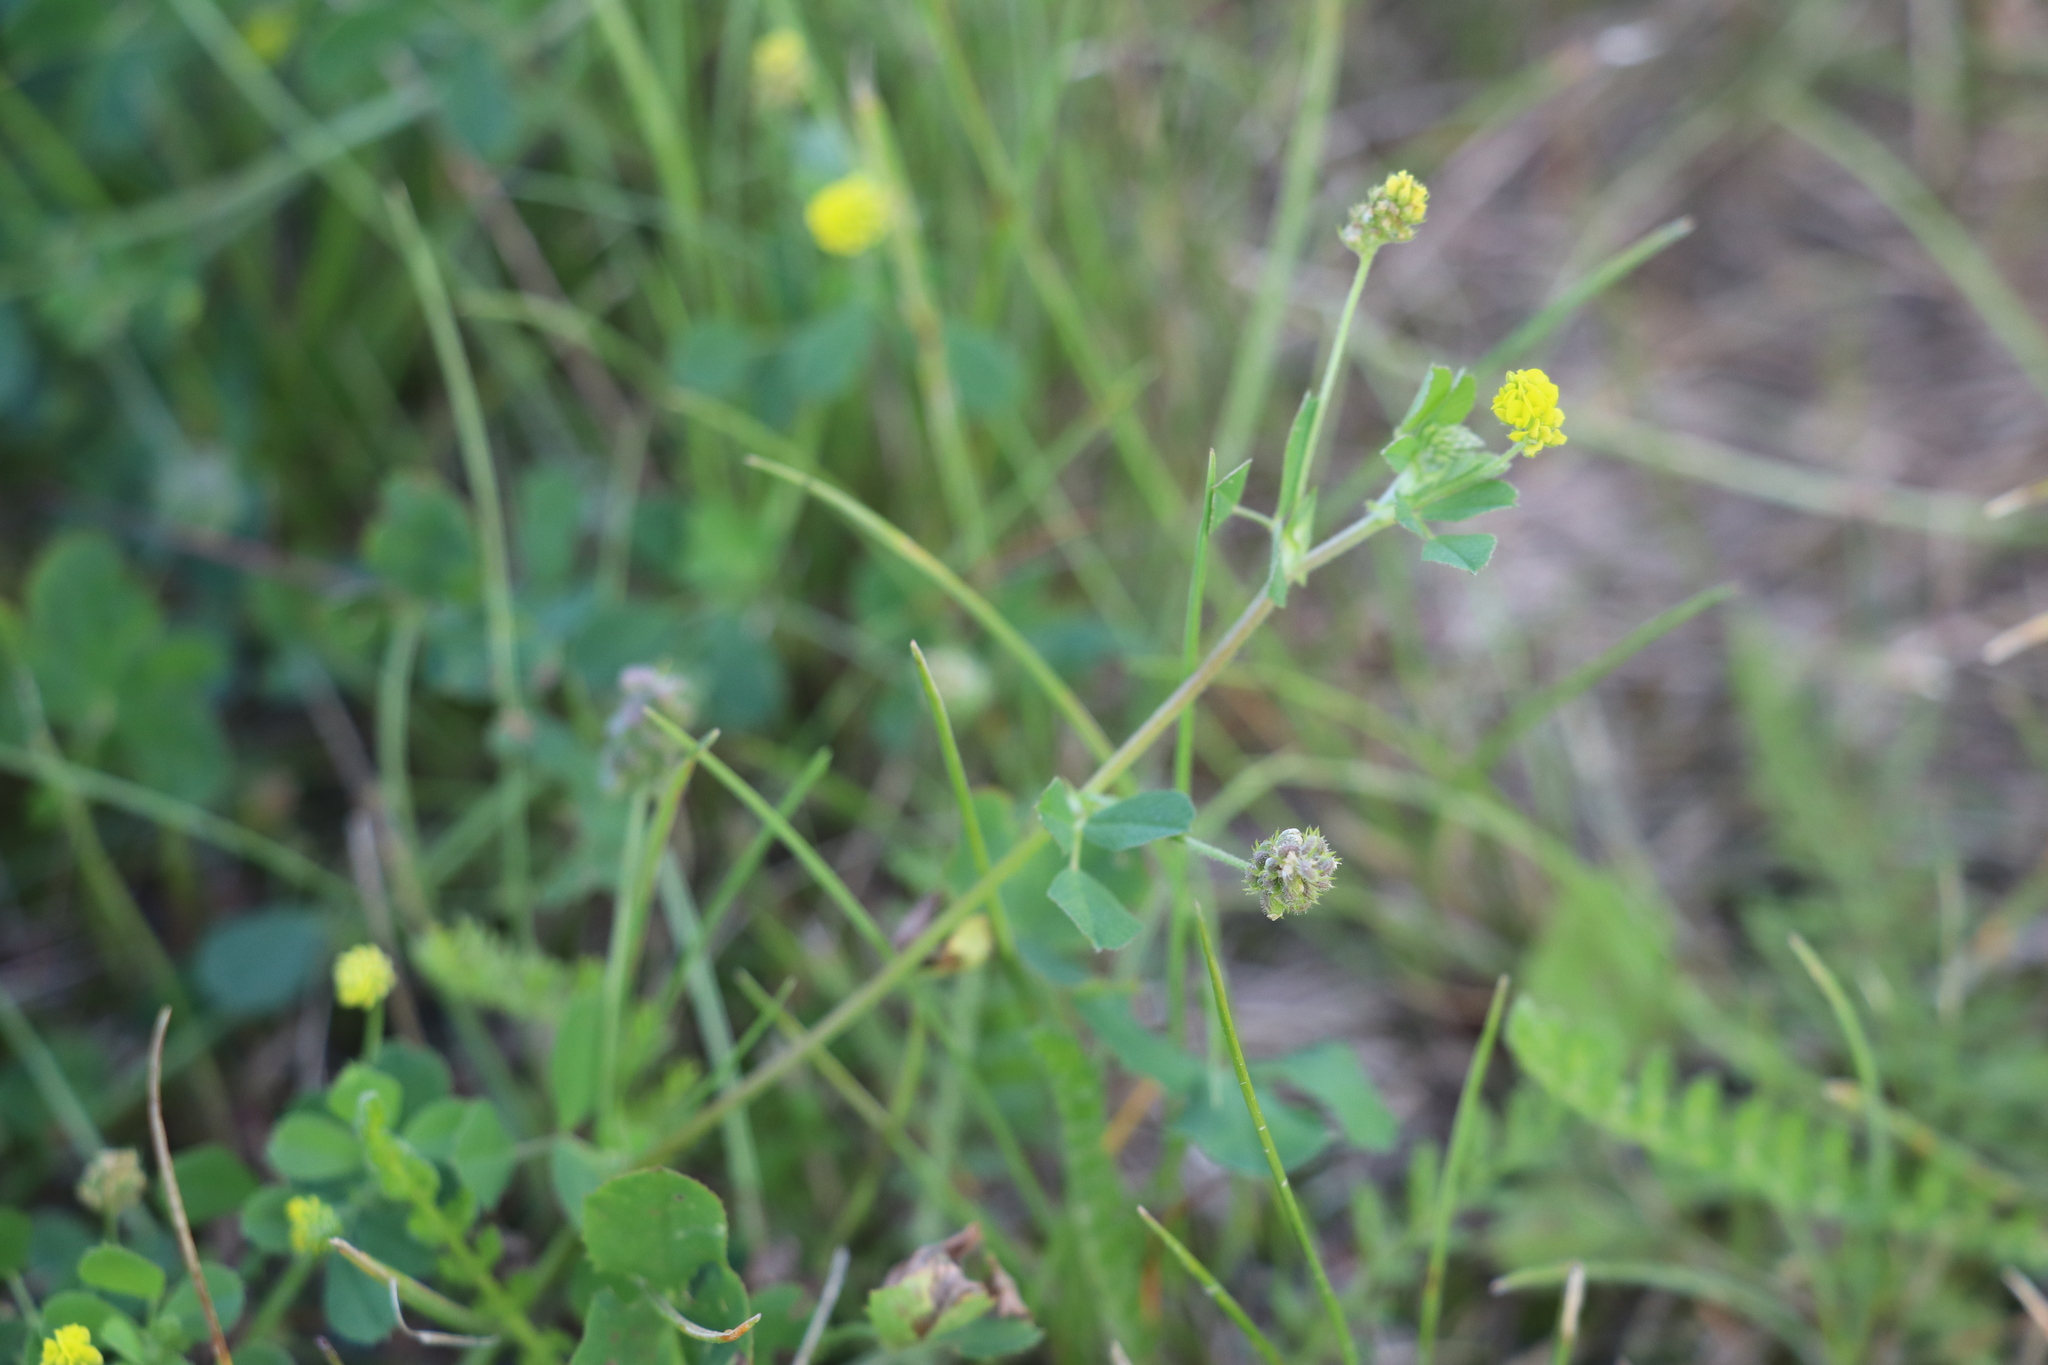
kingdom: Plantae
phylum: Tracheophyta
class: Magnoliopsida
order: Fabales
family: Fabaceae
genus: Medicago
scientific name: Medicago lupulina
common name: Black medick
